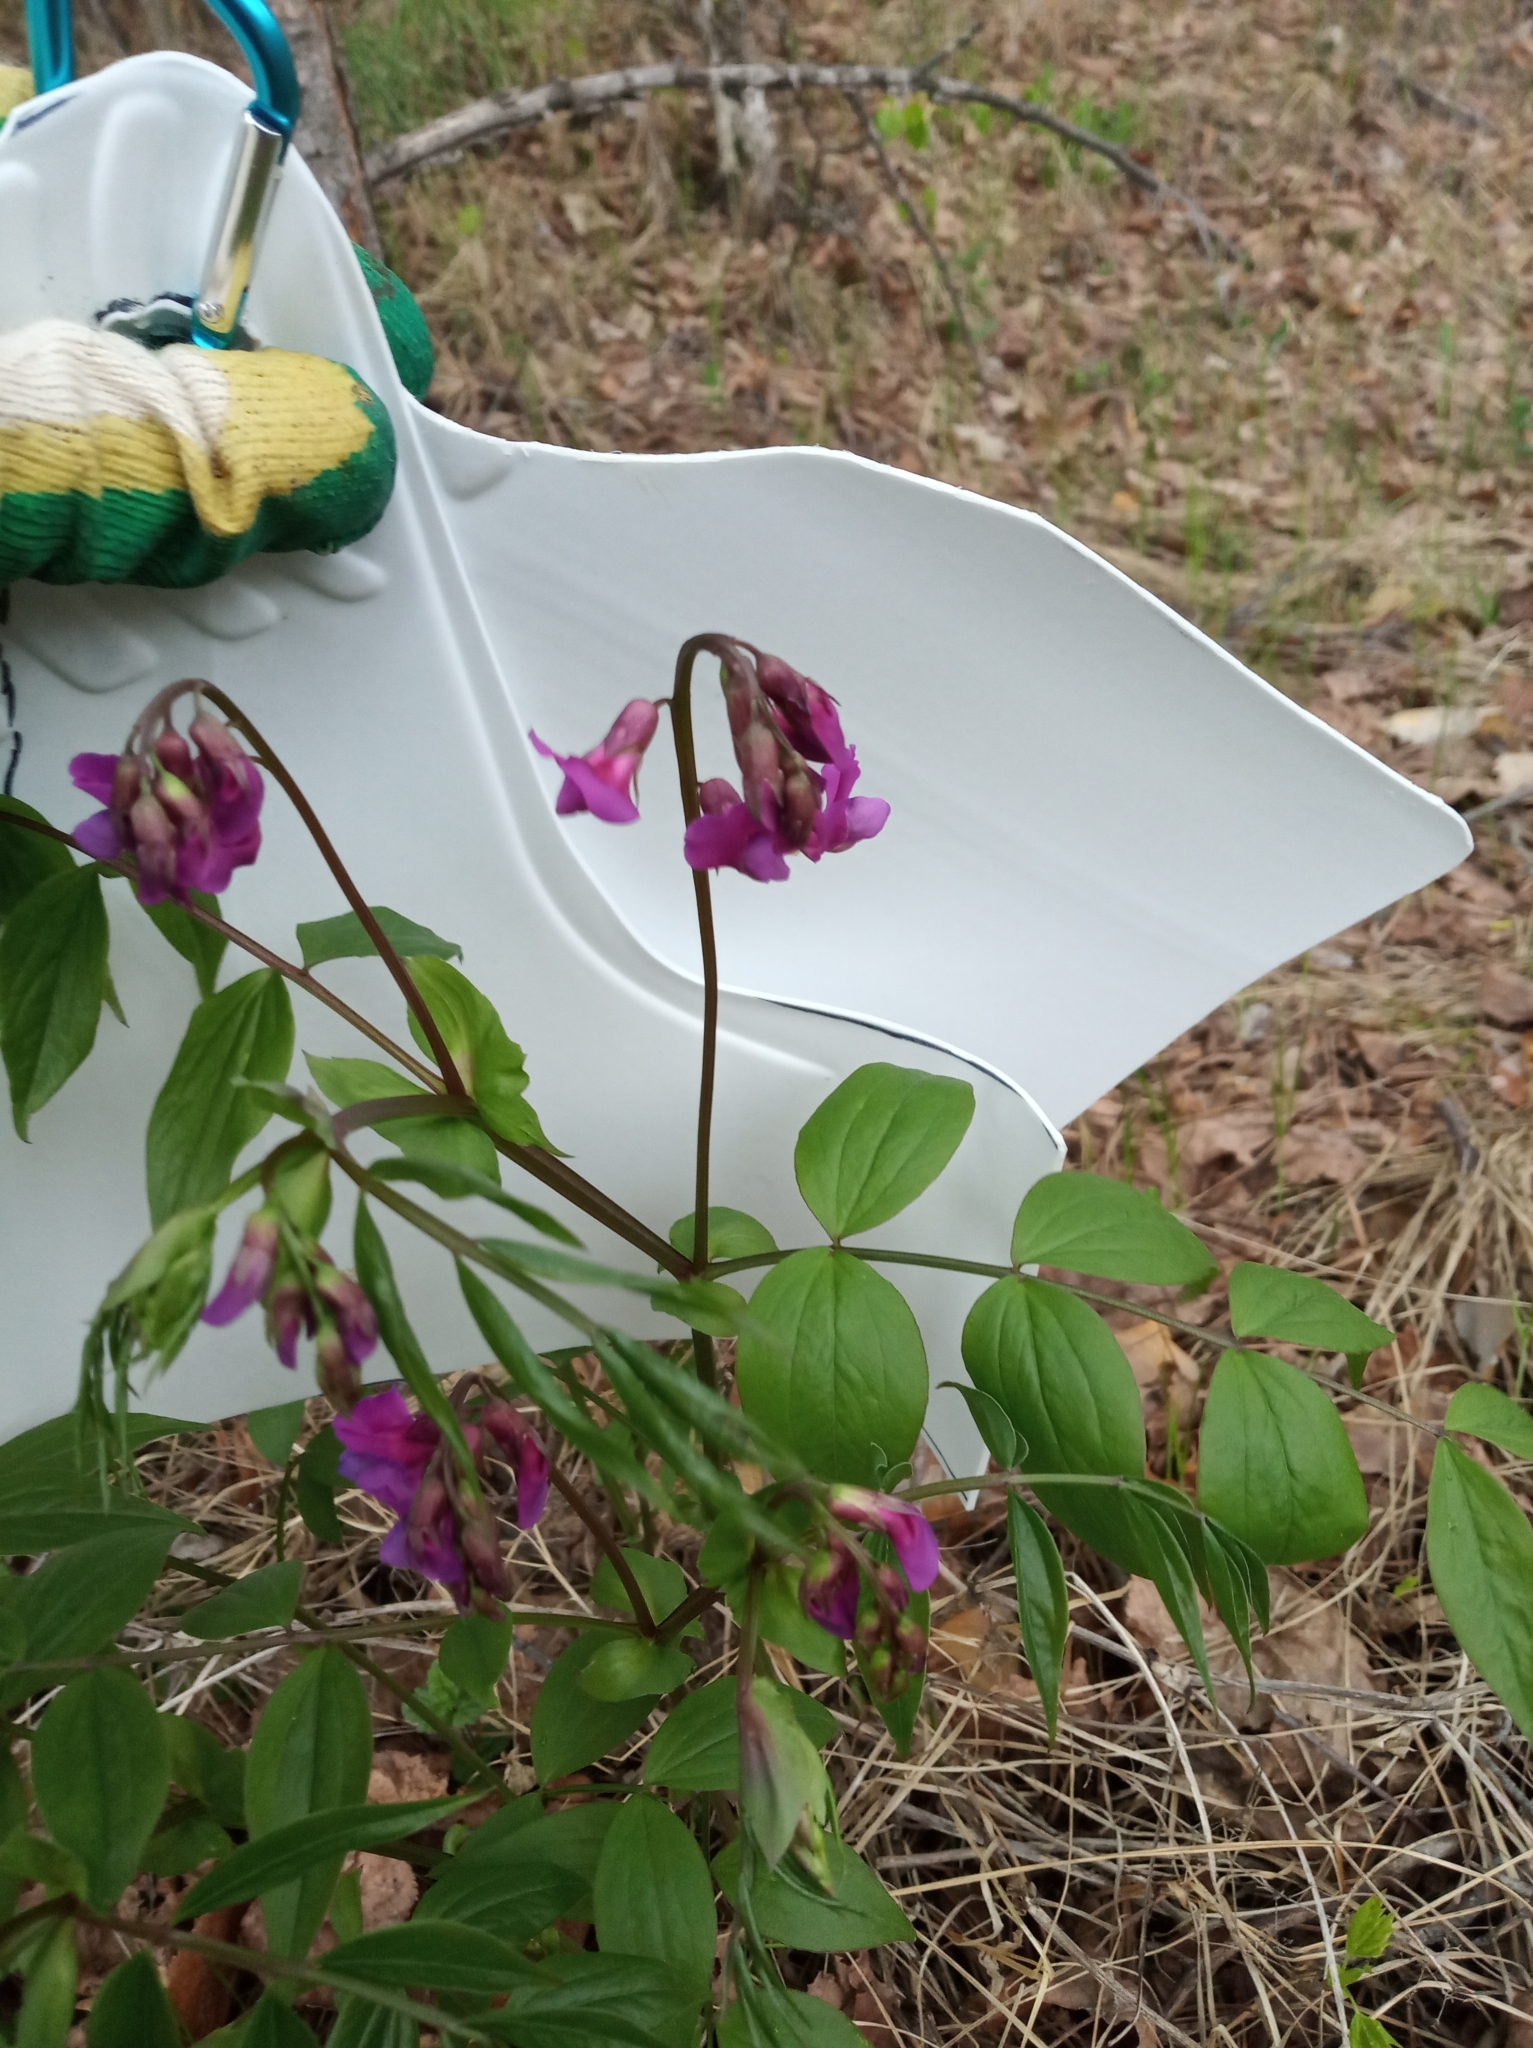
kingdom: Plantae
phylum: Tracheophyta
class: Magnoliopsida
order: Fabales
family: Fabaceae
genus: Lathyrus
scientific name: Lathyrus vernus
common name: Spring pea
